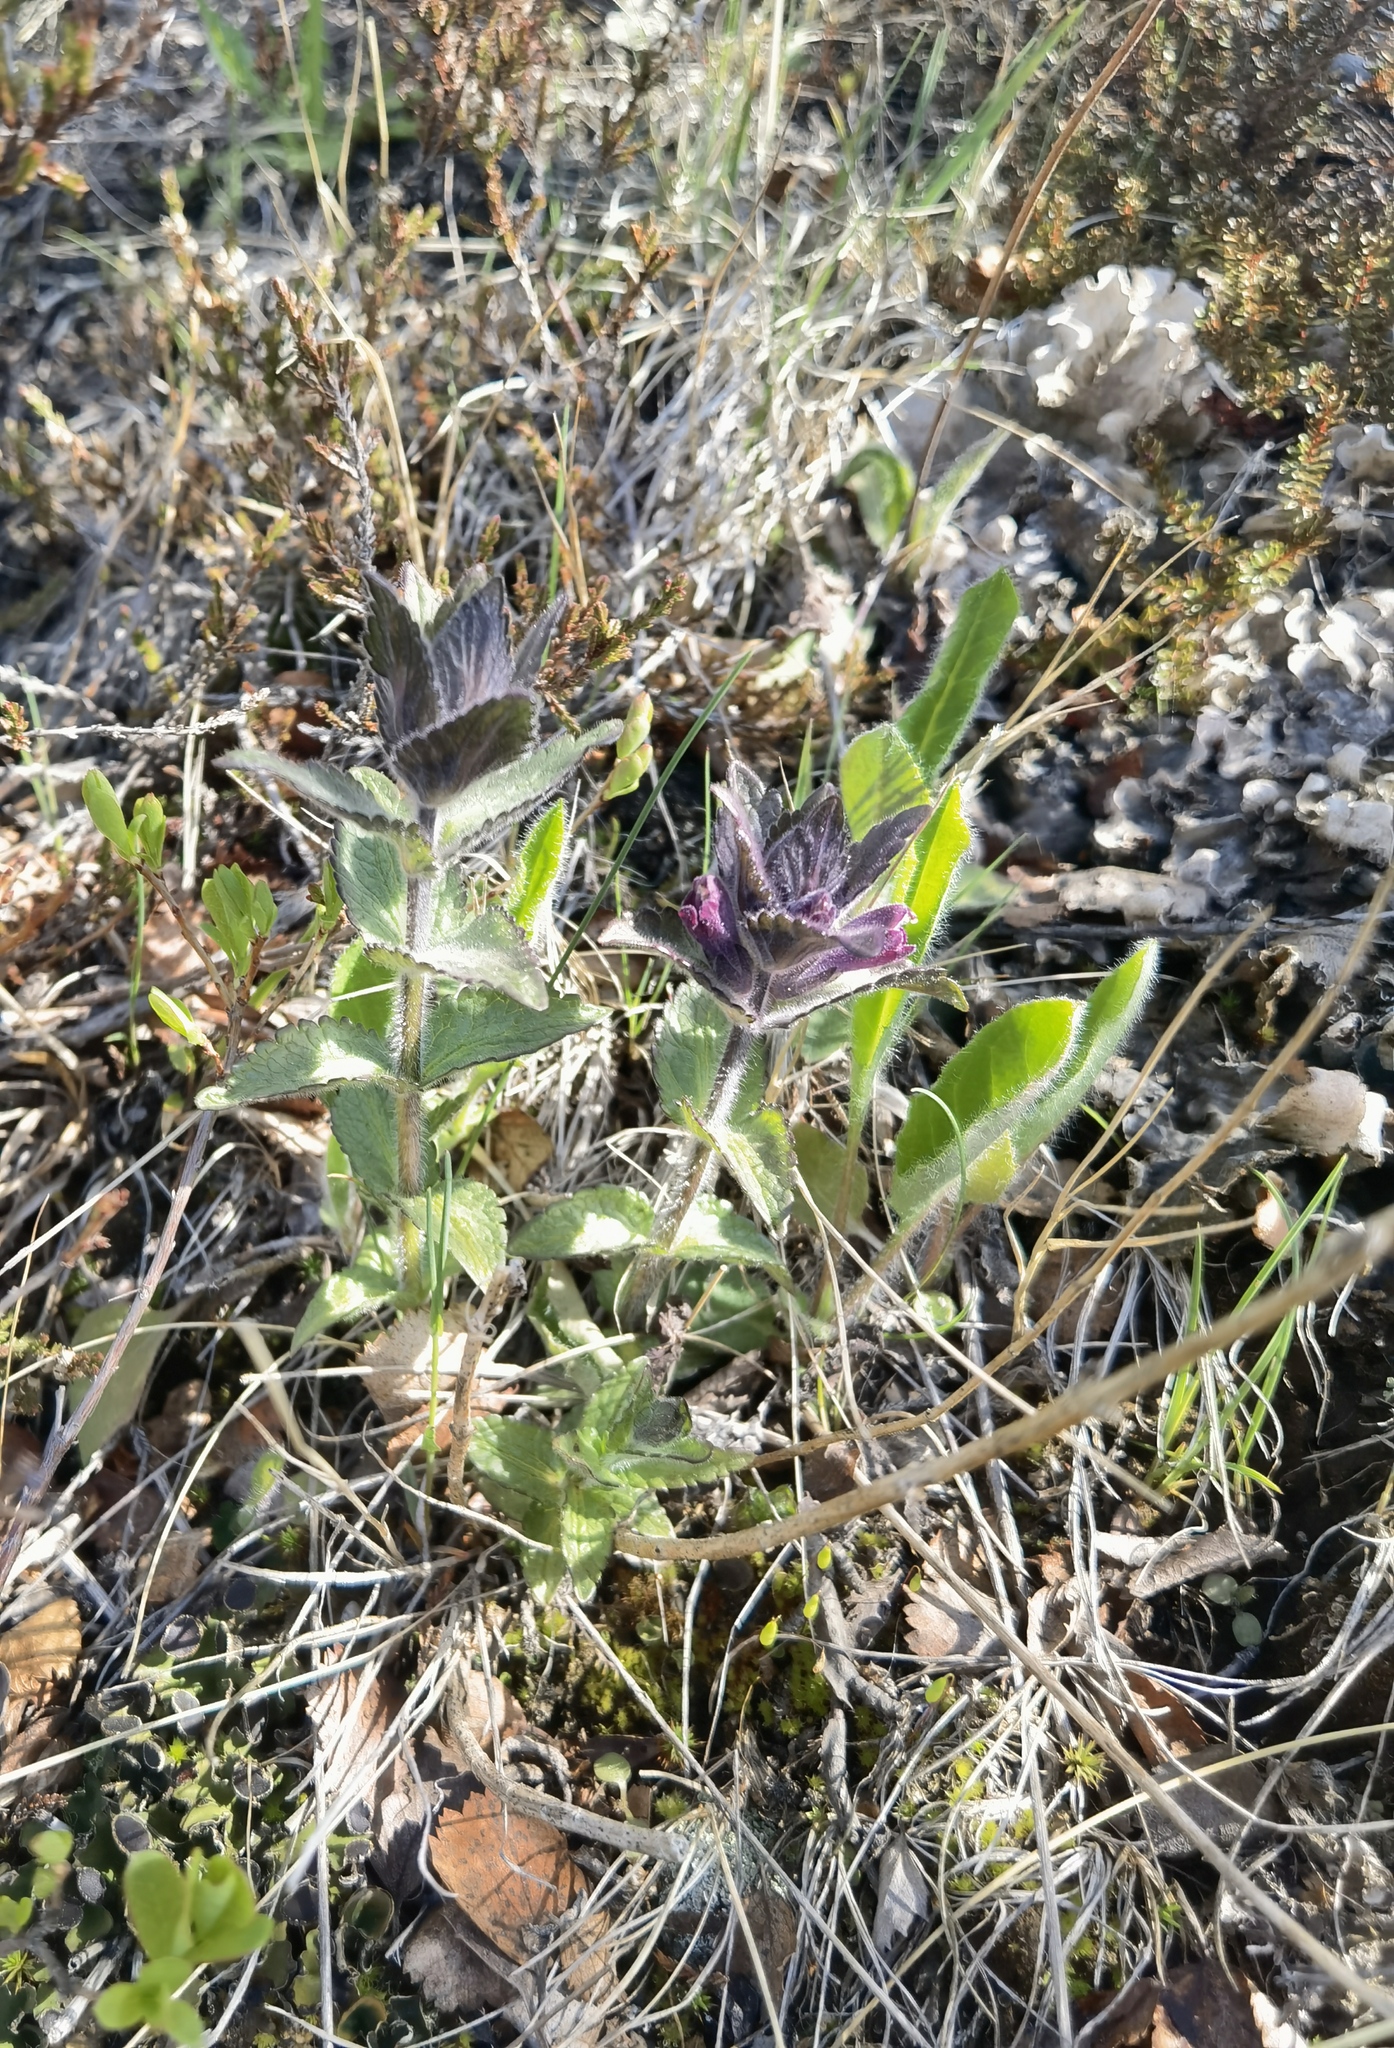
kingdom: Plantae
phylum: Tracheophyta
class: Magnoliopsida
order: Lamiales
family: Orobanchaceae
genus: Bartsia
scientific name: Bartsia alpina
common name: Alpine bartsia
